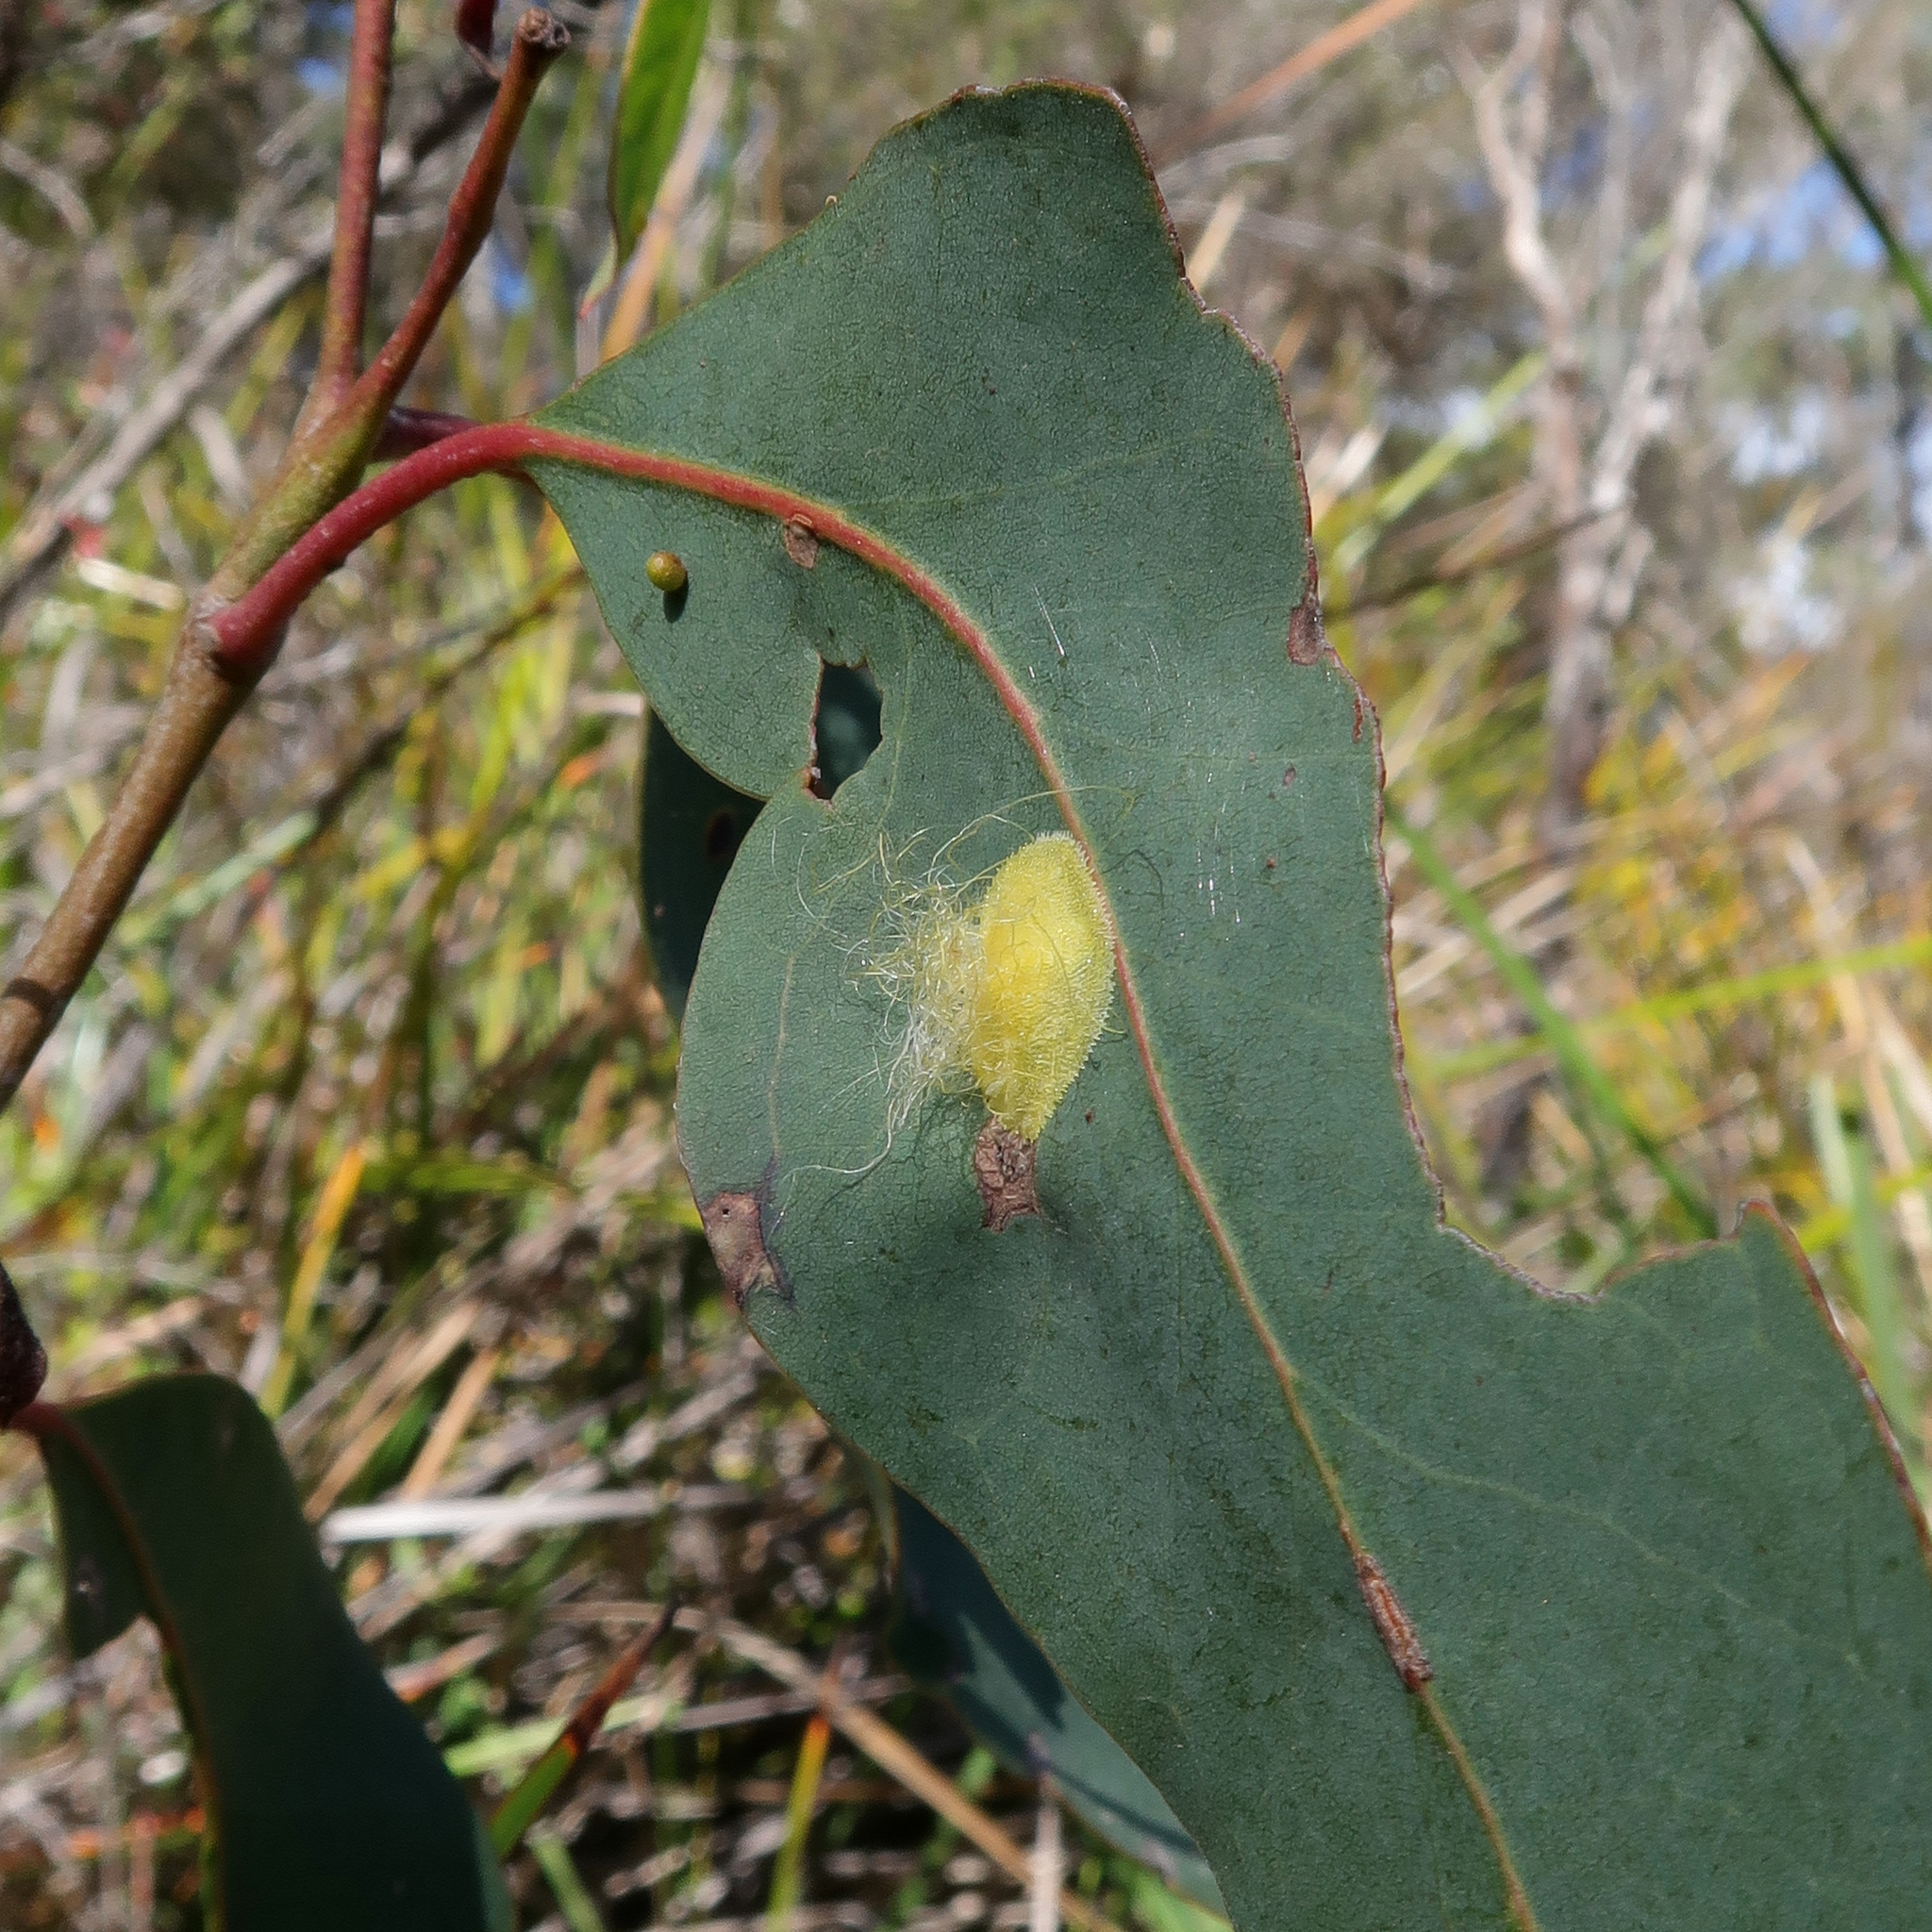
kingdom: Animalia
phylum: Arthropoda
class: Insecta
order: Hemiptera
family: Aphalaridae
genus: Creiis
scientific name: Creiis longipennis
